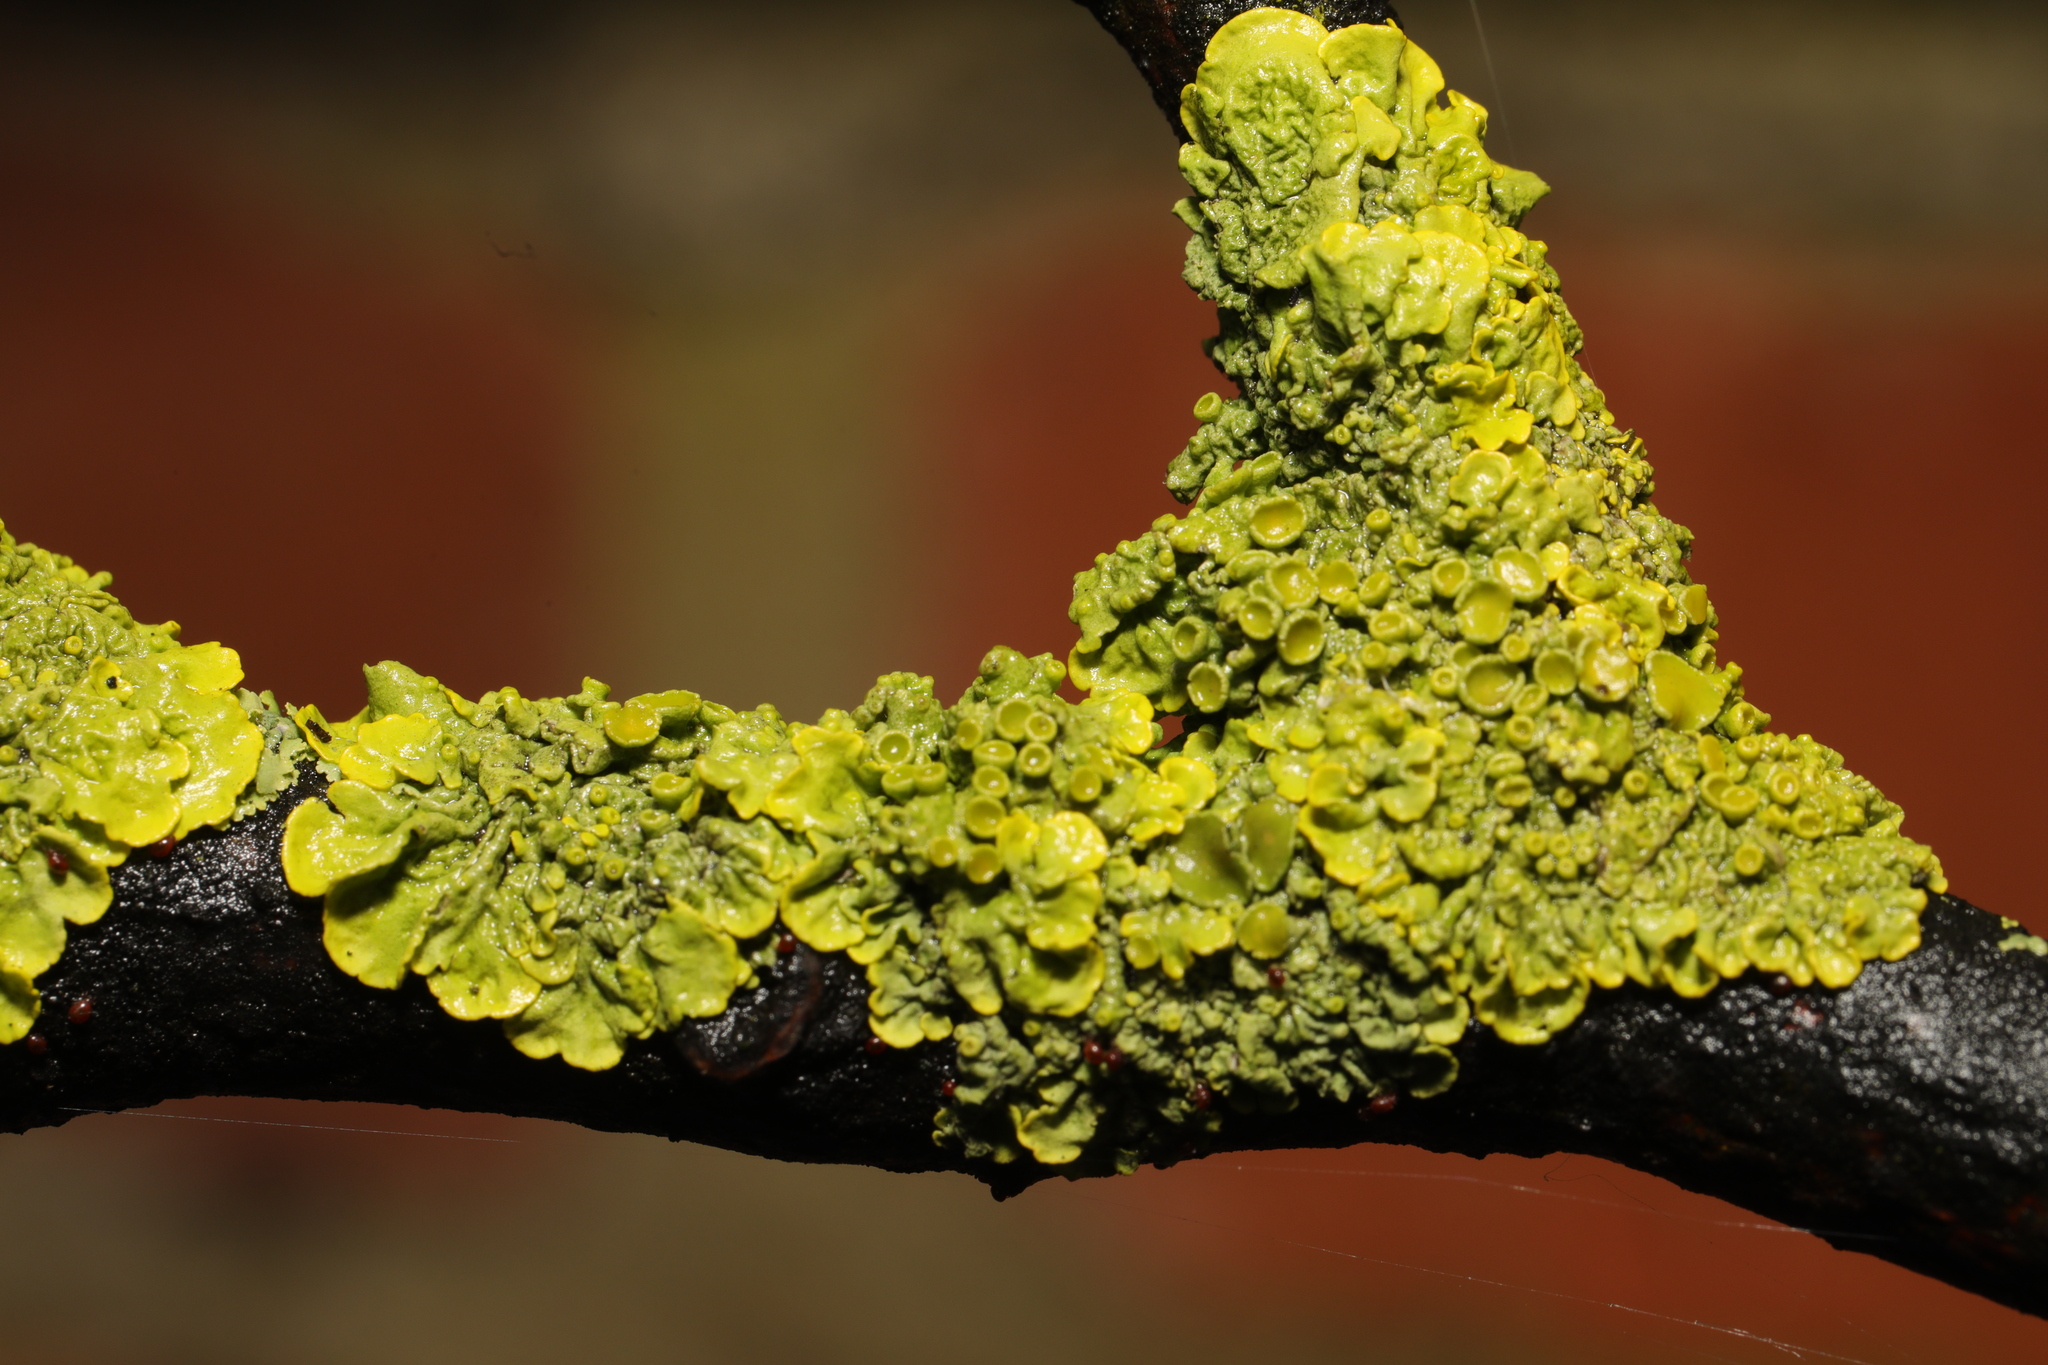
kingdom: Fungi
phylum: Ascomycota
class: Lecanoromycetes
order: Teloschistales
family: Teloschistaceae
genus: Xanthoria
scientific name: Xanthoria parietina
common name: Common orange lichen
